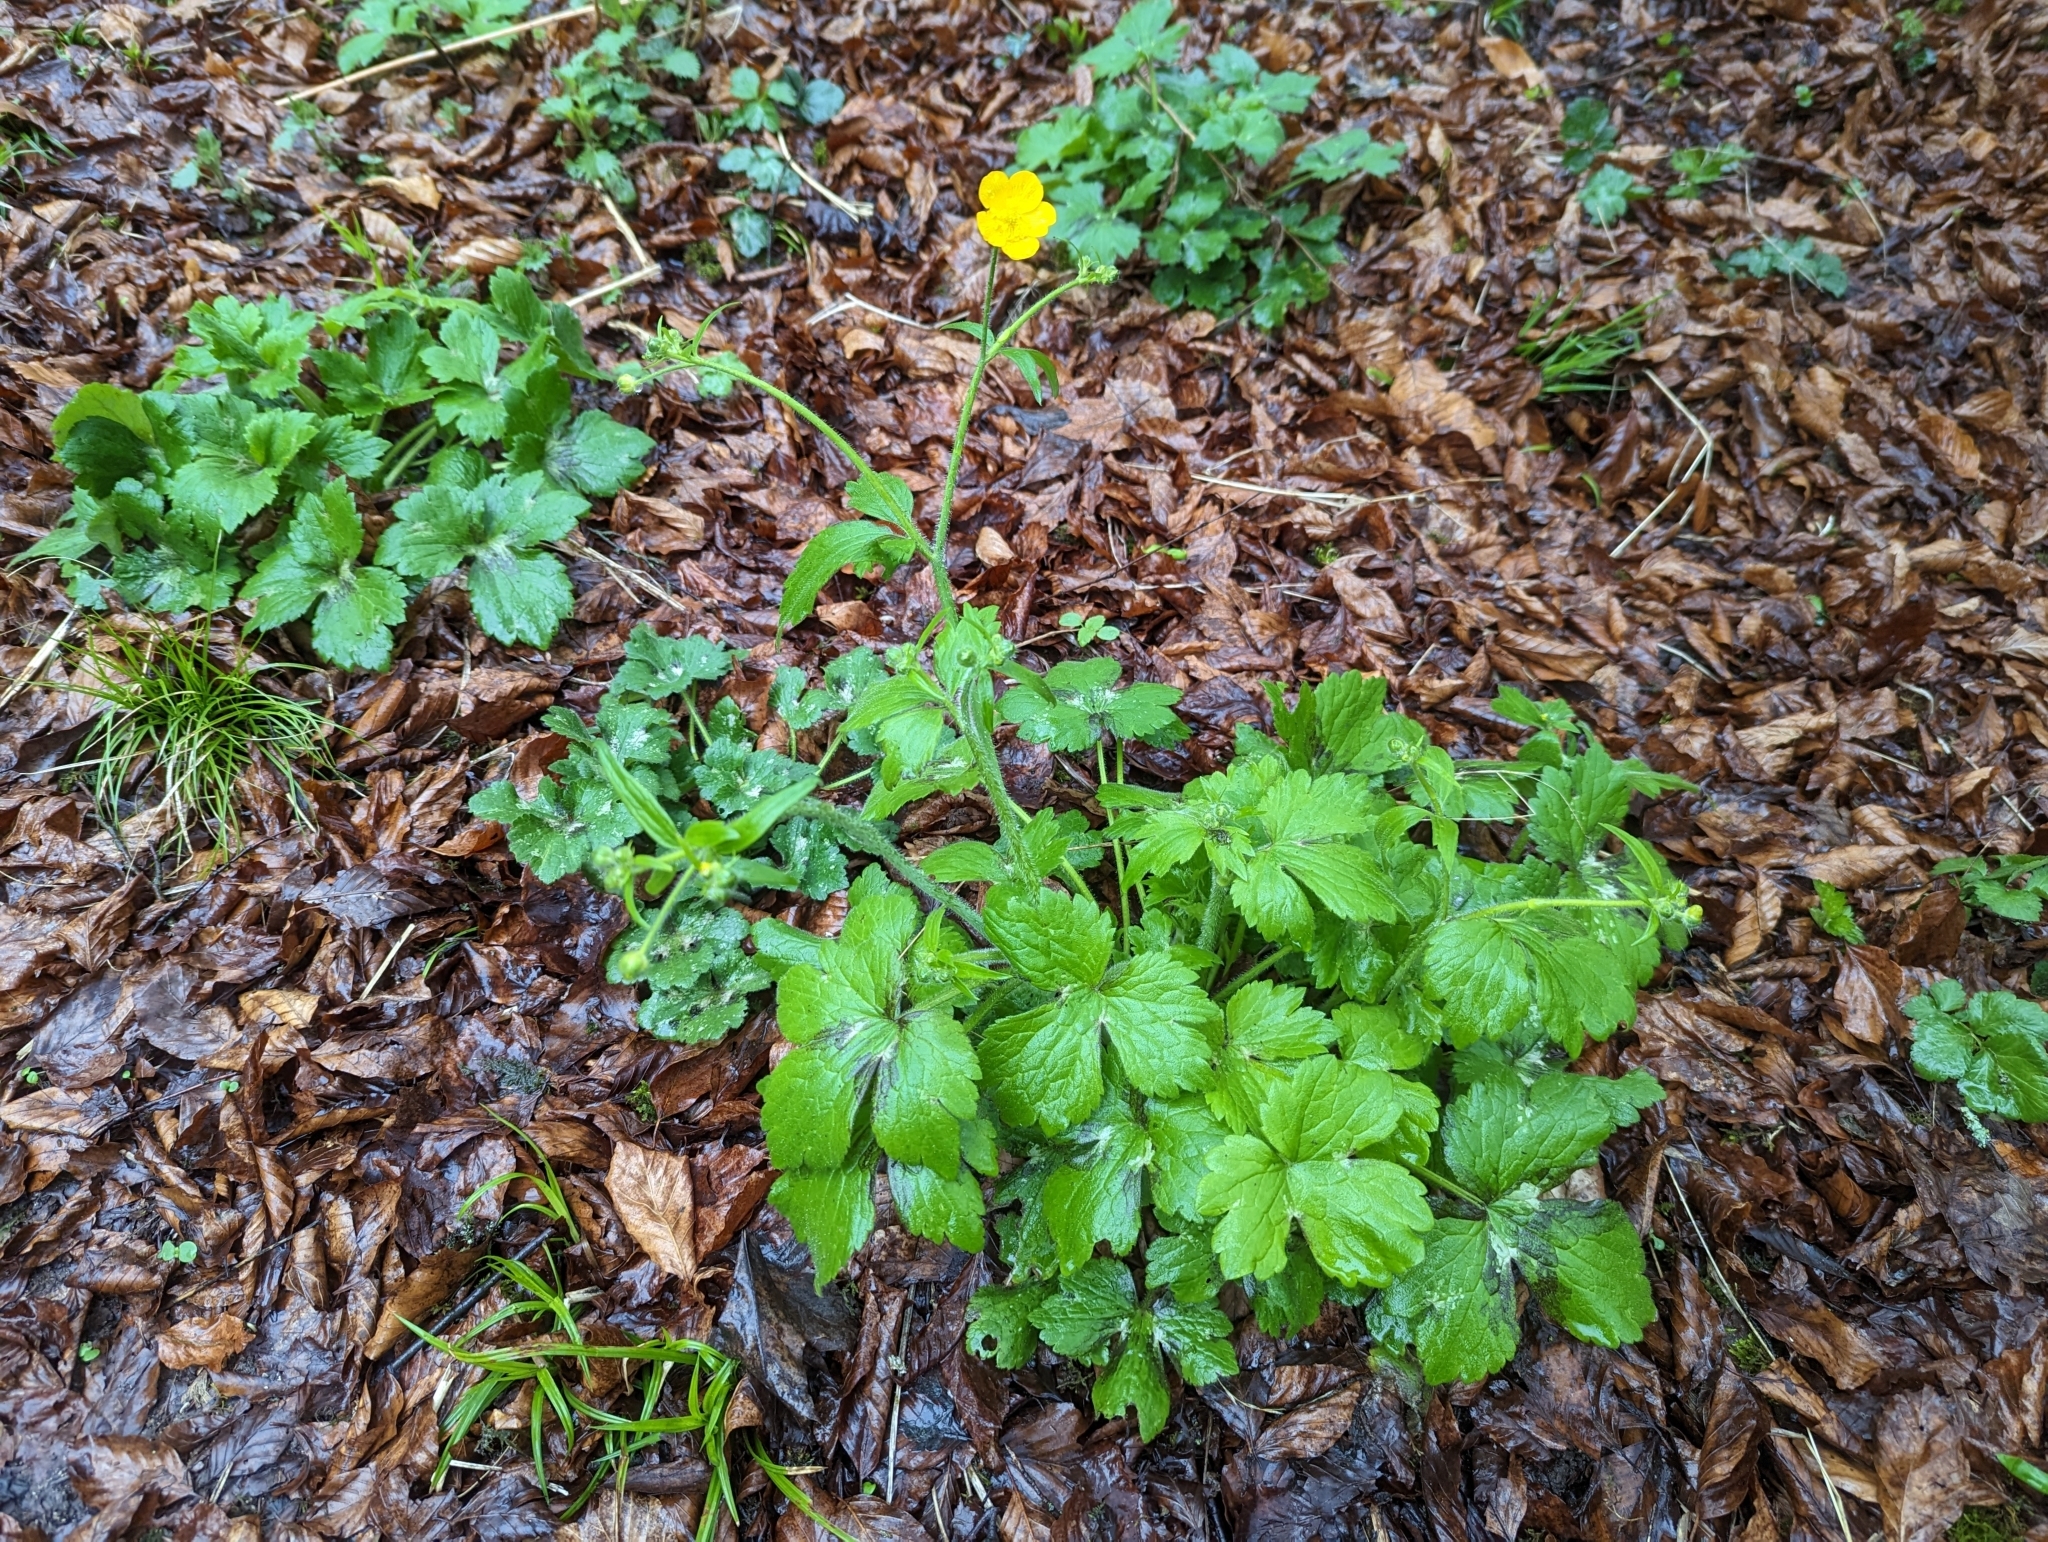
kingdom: Plantae
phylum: Tracheophyta
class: Magnoliopsida
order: Ranunculales
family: Ranunculaceae
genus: Ranunculus
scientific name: Ranunculus lanuginosus
